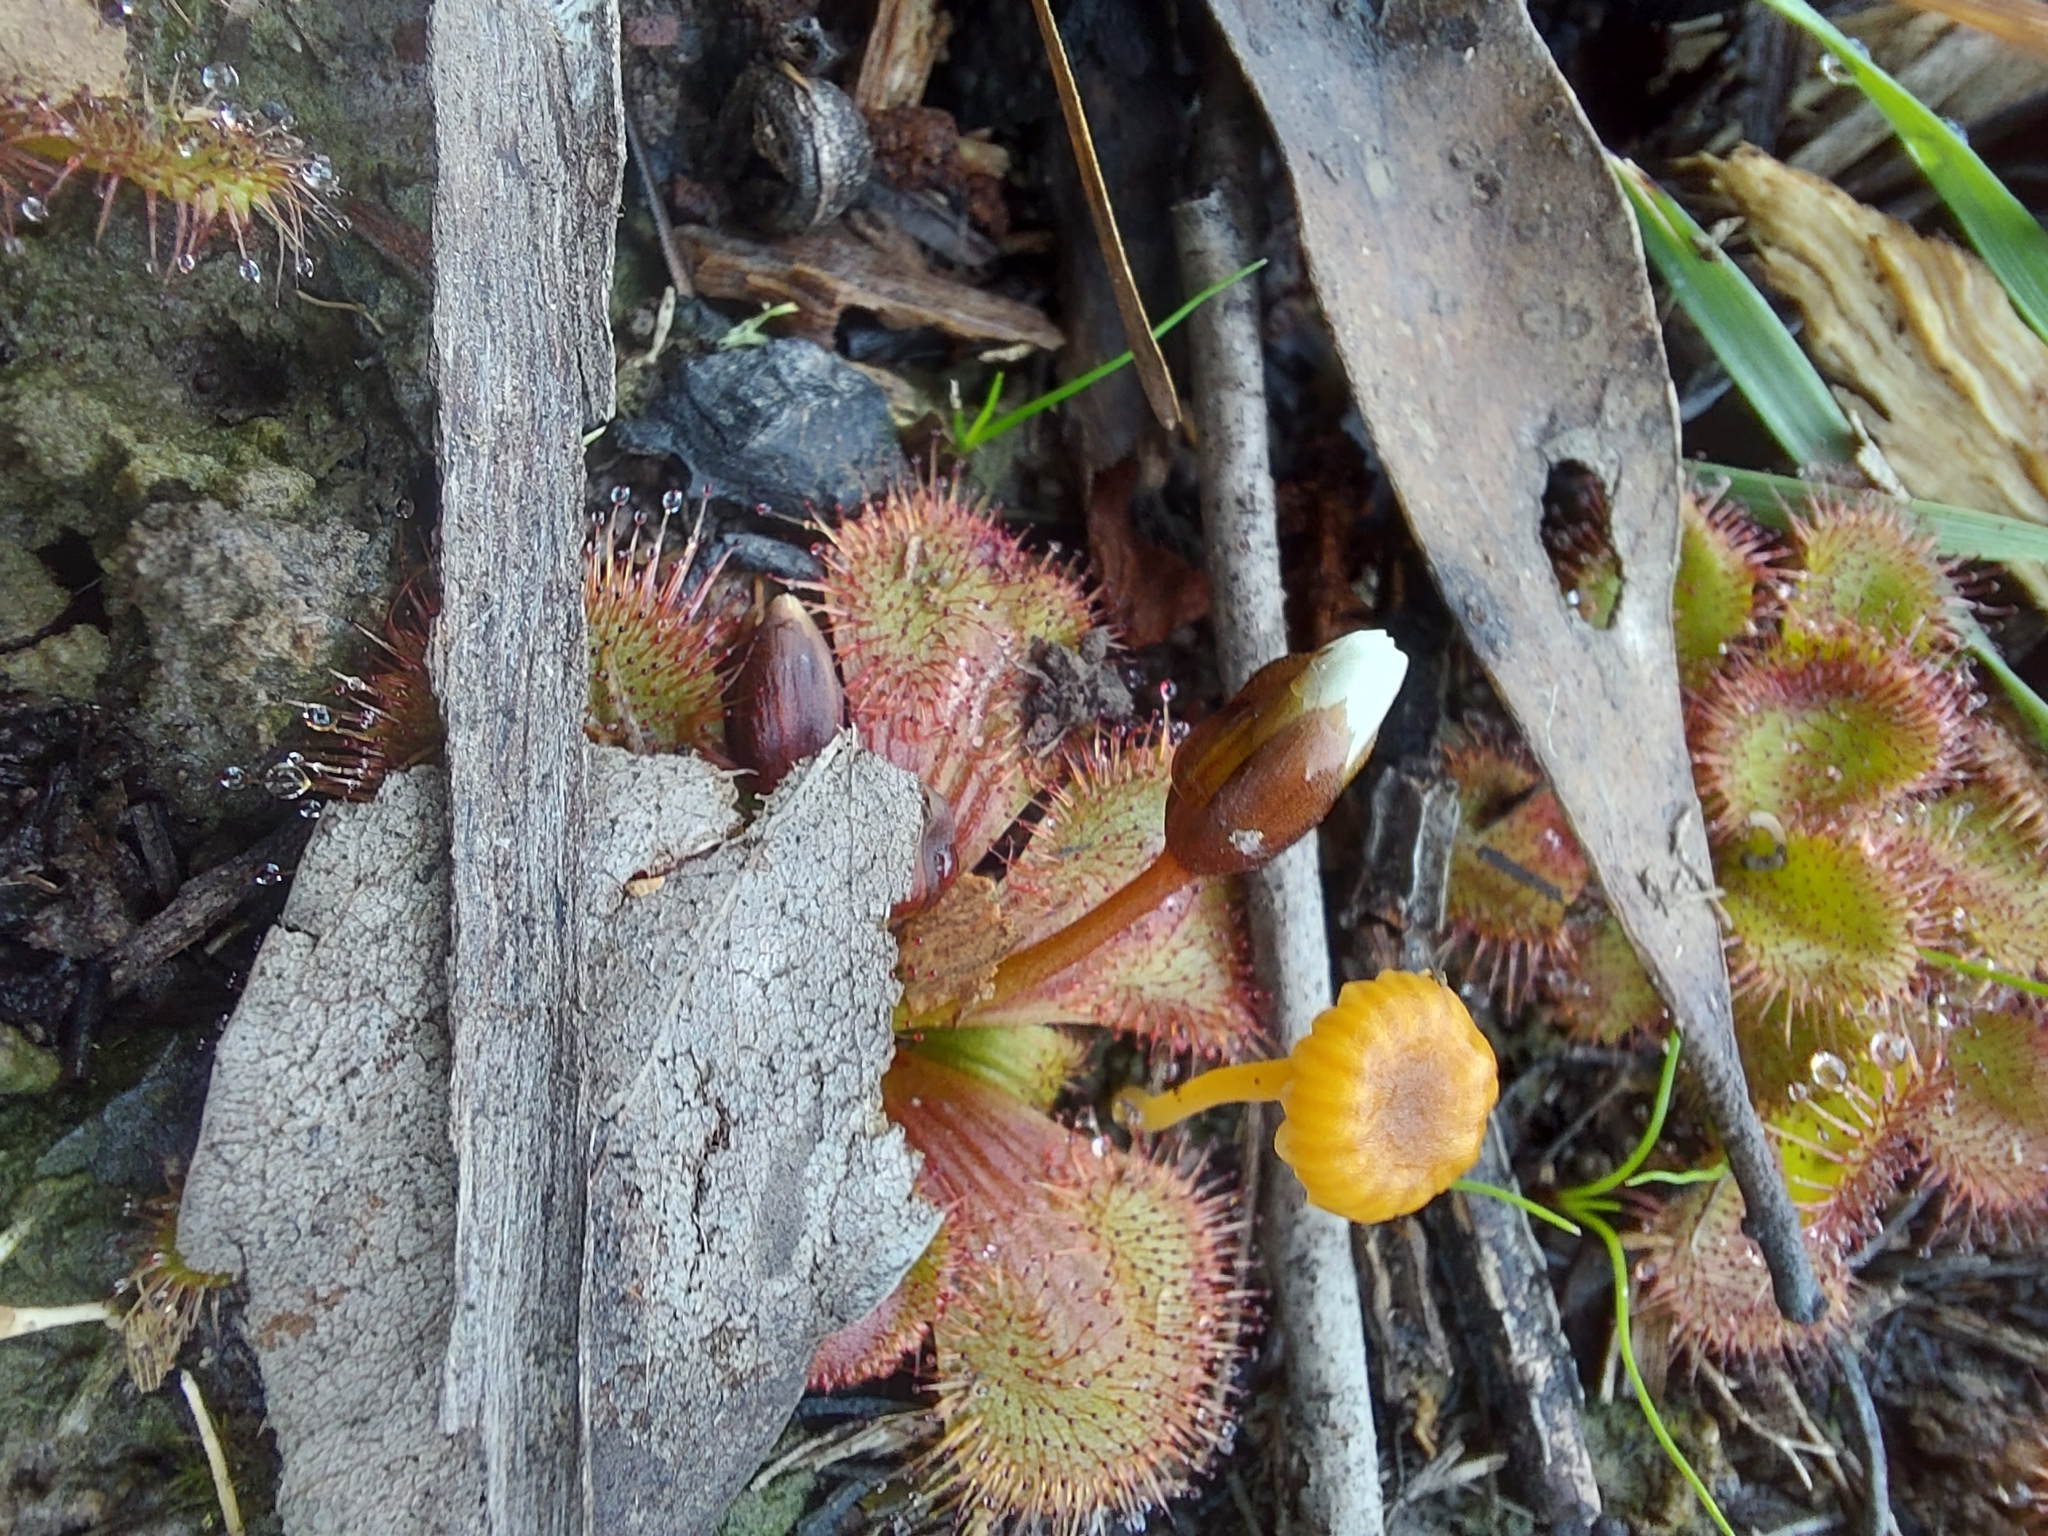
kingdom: Plantae
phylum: Tracheophyta
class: Magnoliopsida
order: Caryophyllales
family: Droseraceae
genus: Drosera
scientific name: Drosera aberrans
